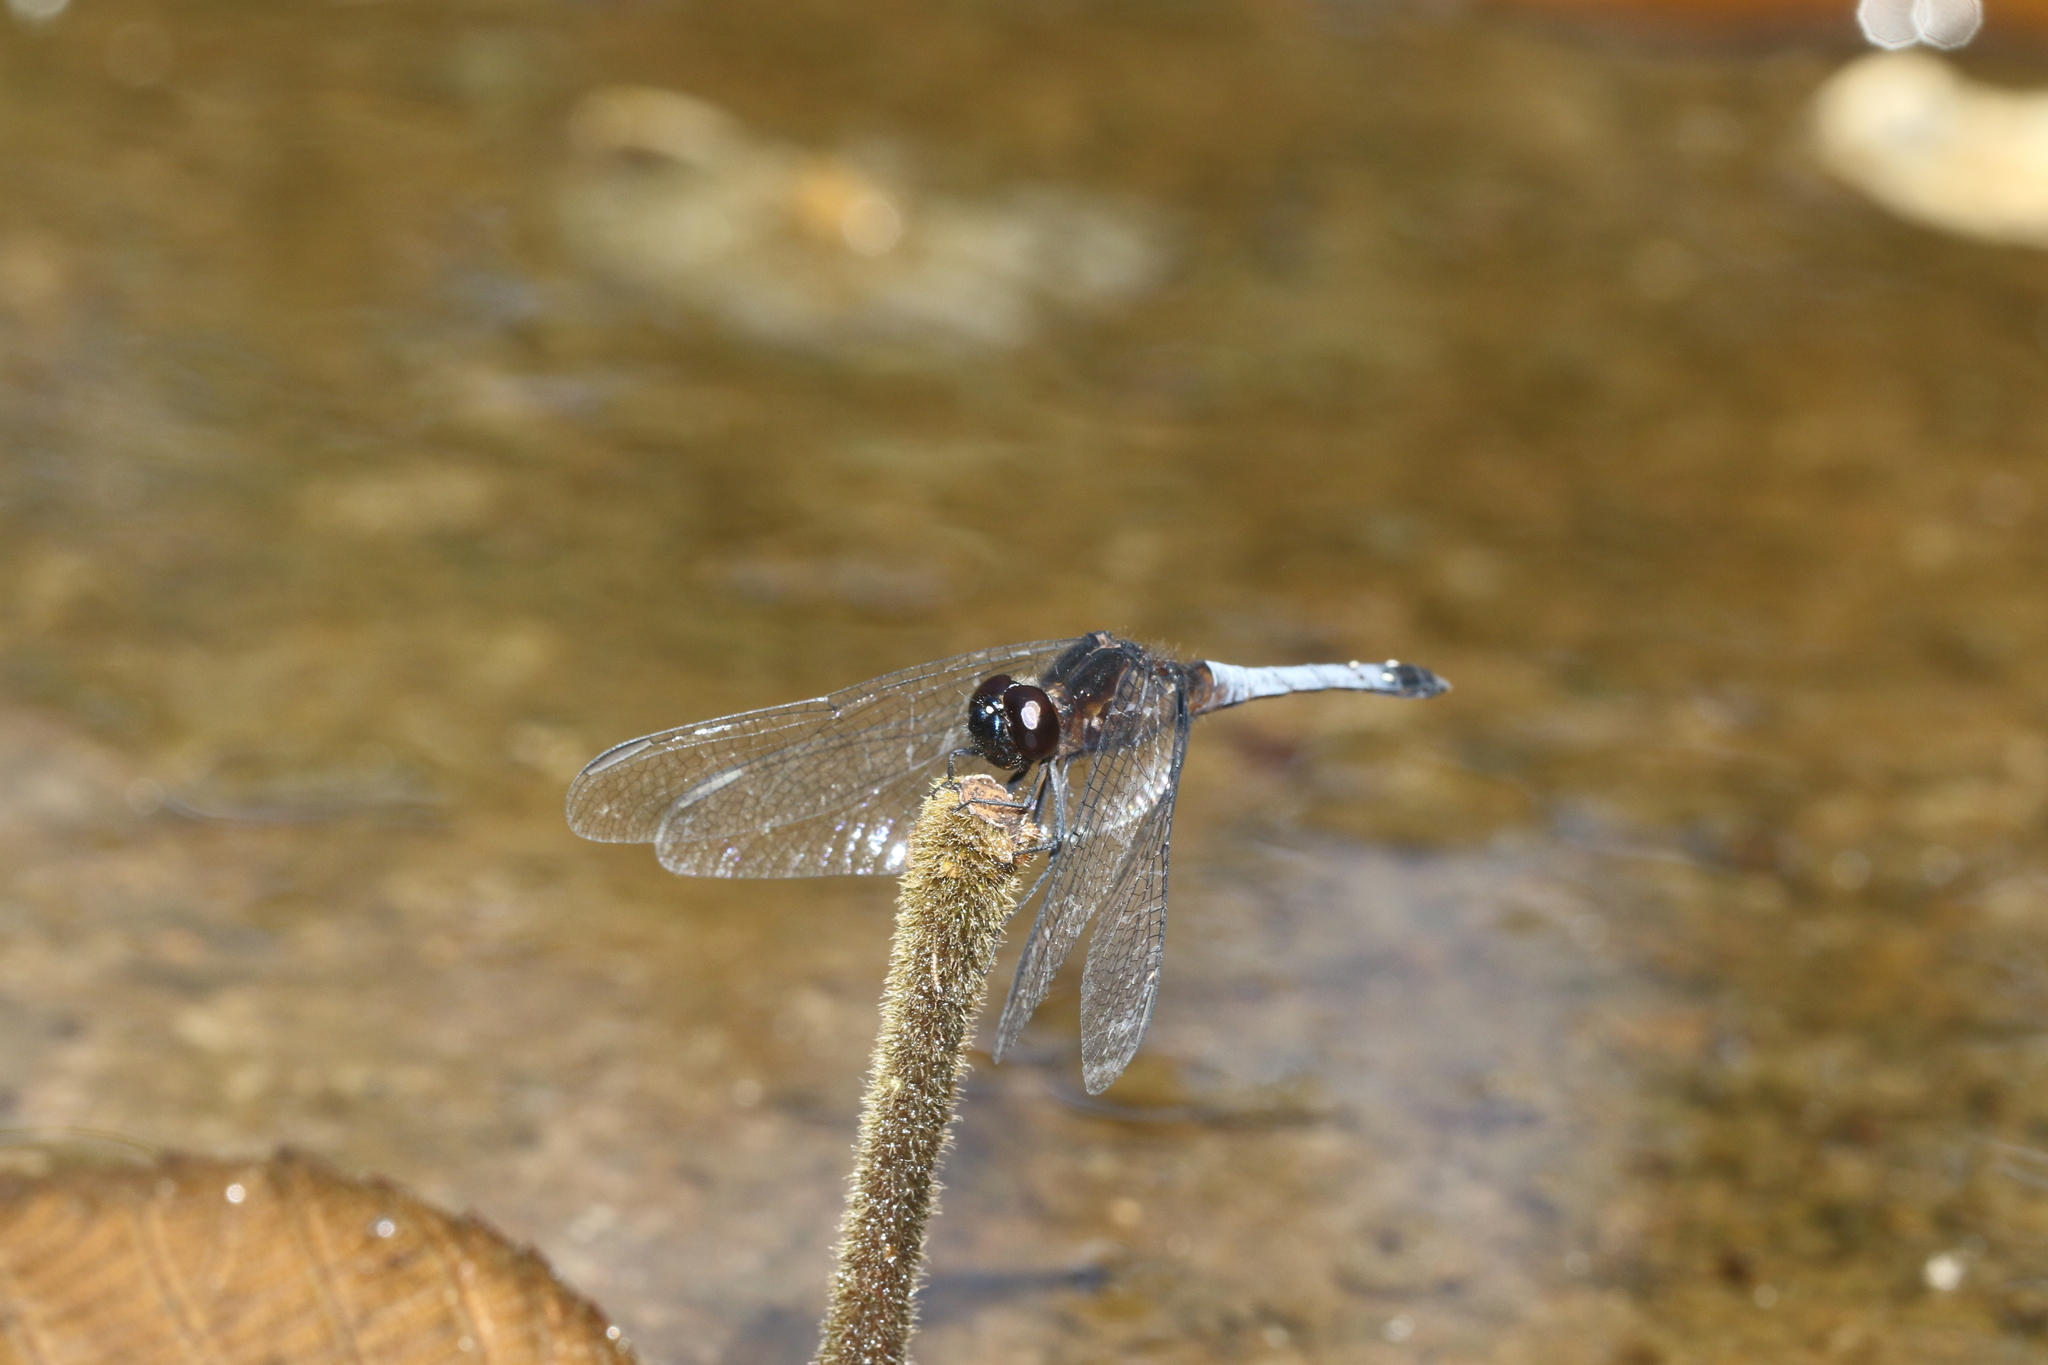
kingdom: Animalia
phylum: Arthropoda
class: Insecta
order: Odonata
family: Libellulidae
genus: Erythrodiplax
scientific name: Erythrodiplax media
